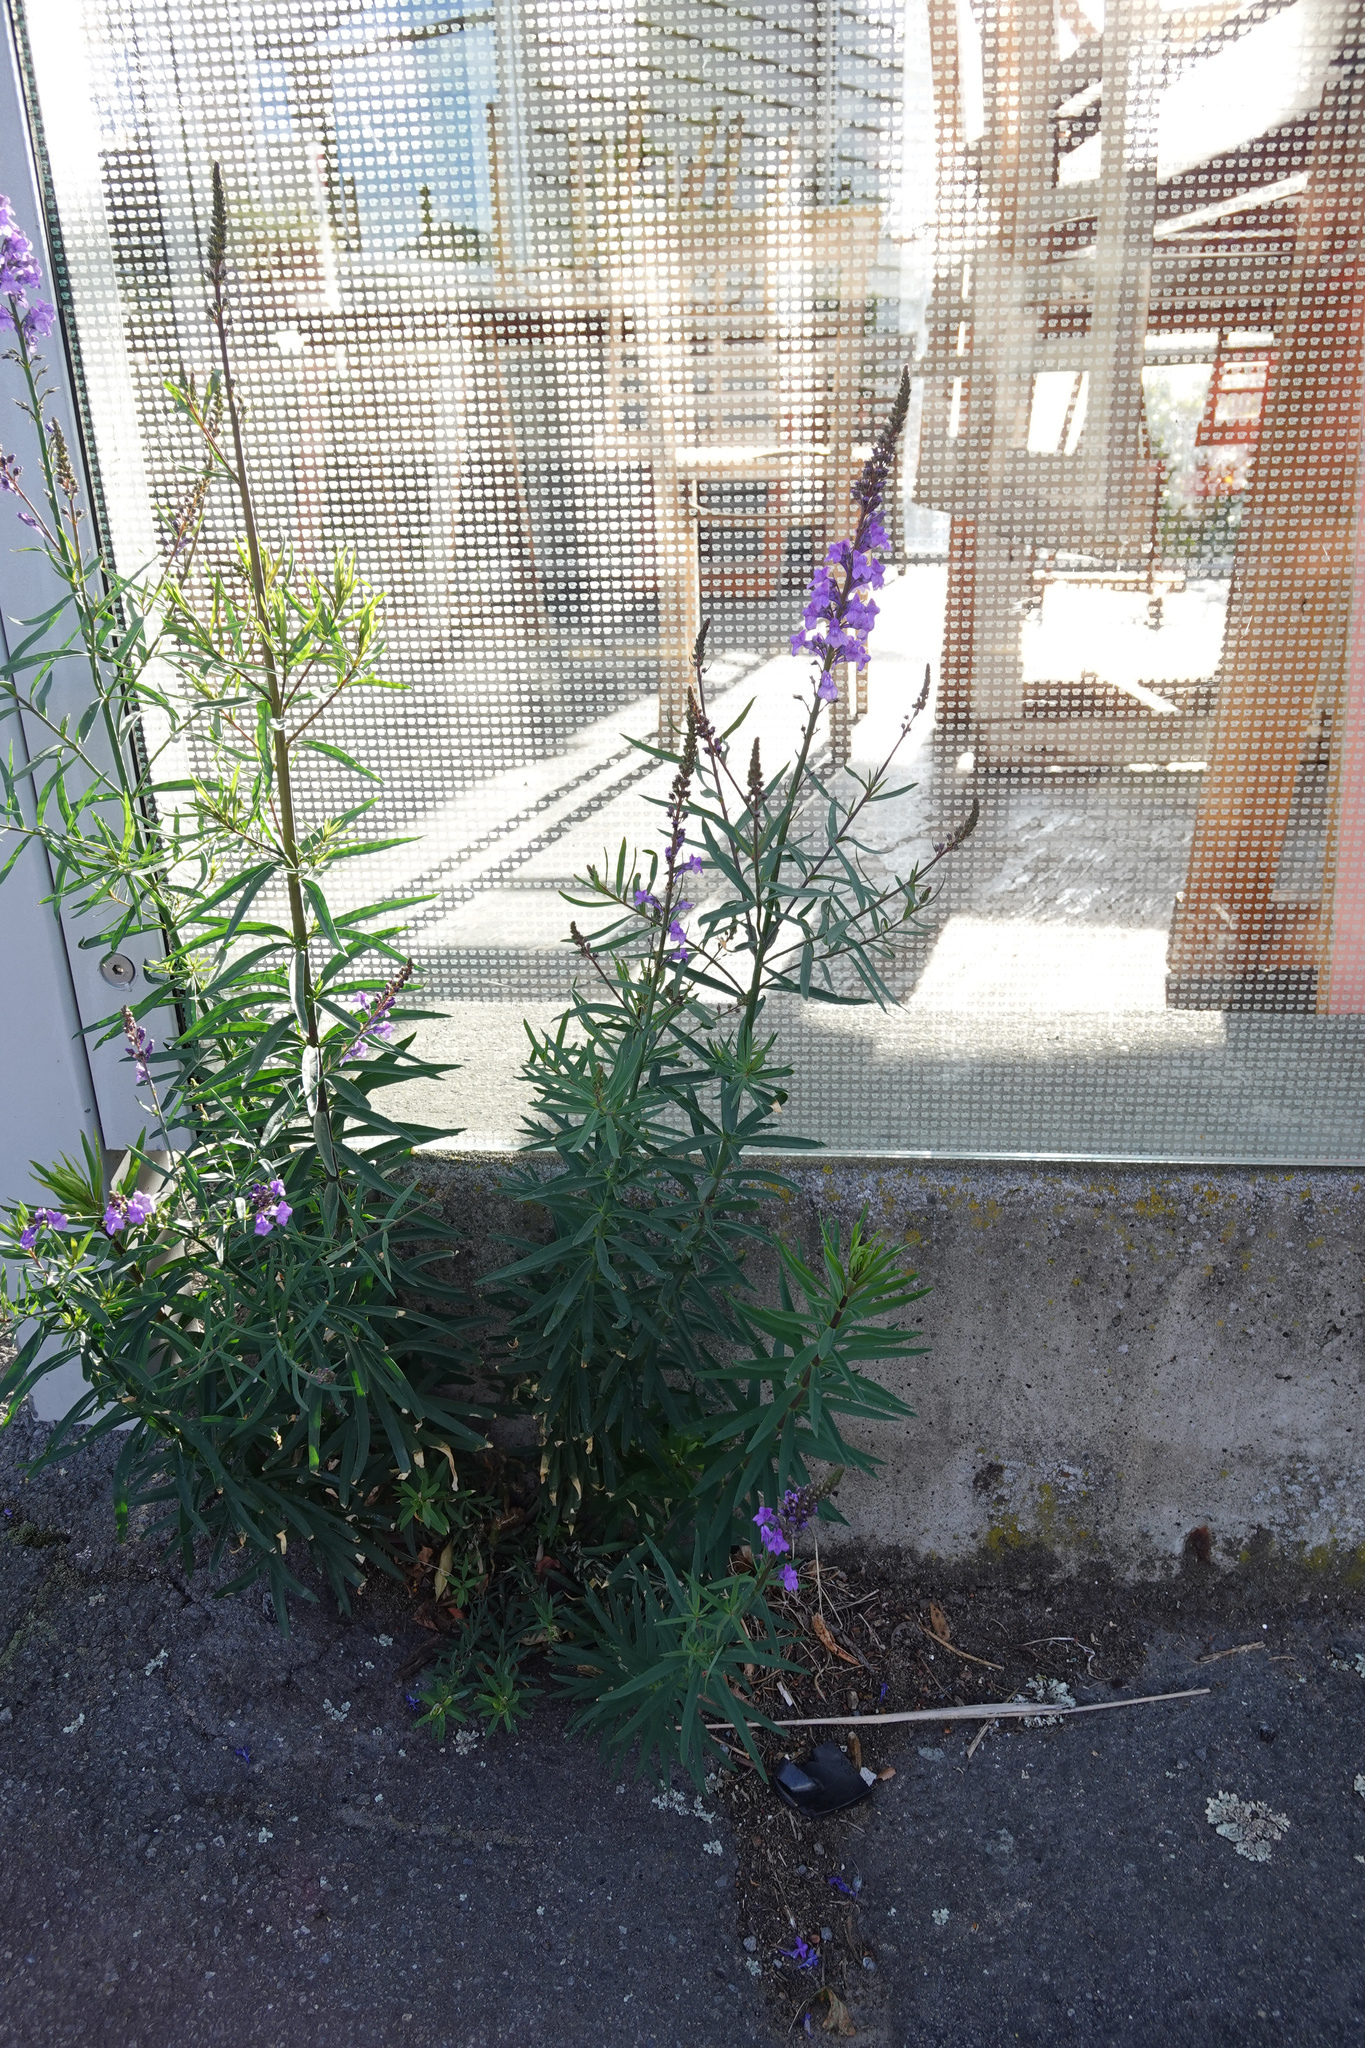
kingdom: Plantae
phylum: Tracheophyta
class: Magnoliopsida
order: Lamiales
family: Plantaginaceae
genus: Linaria
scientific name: Linaria purpurea
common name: Purple toadflax
